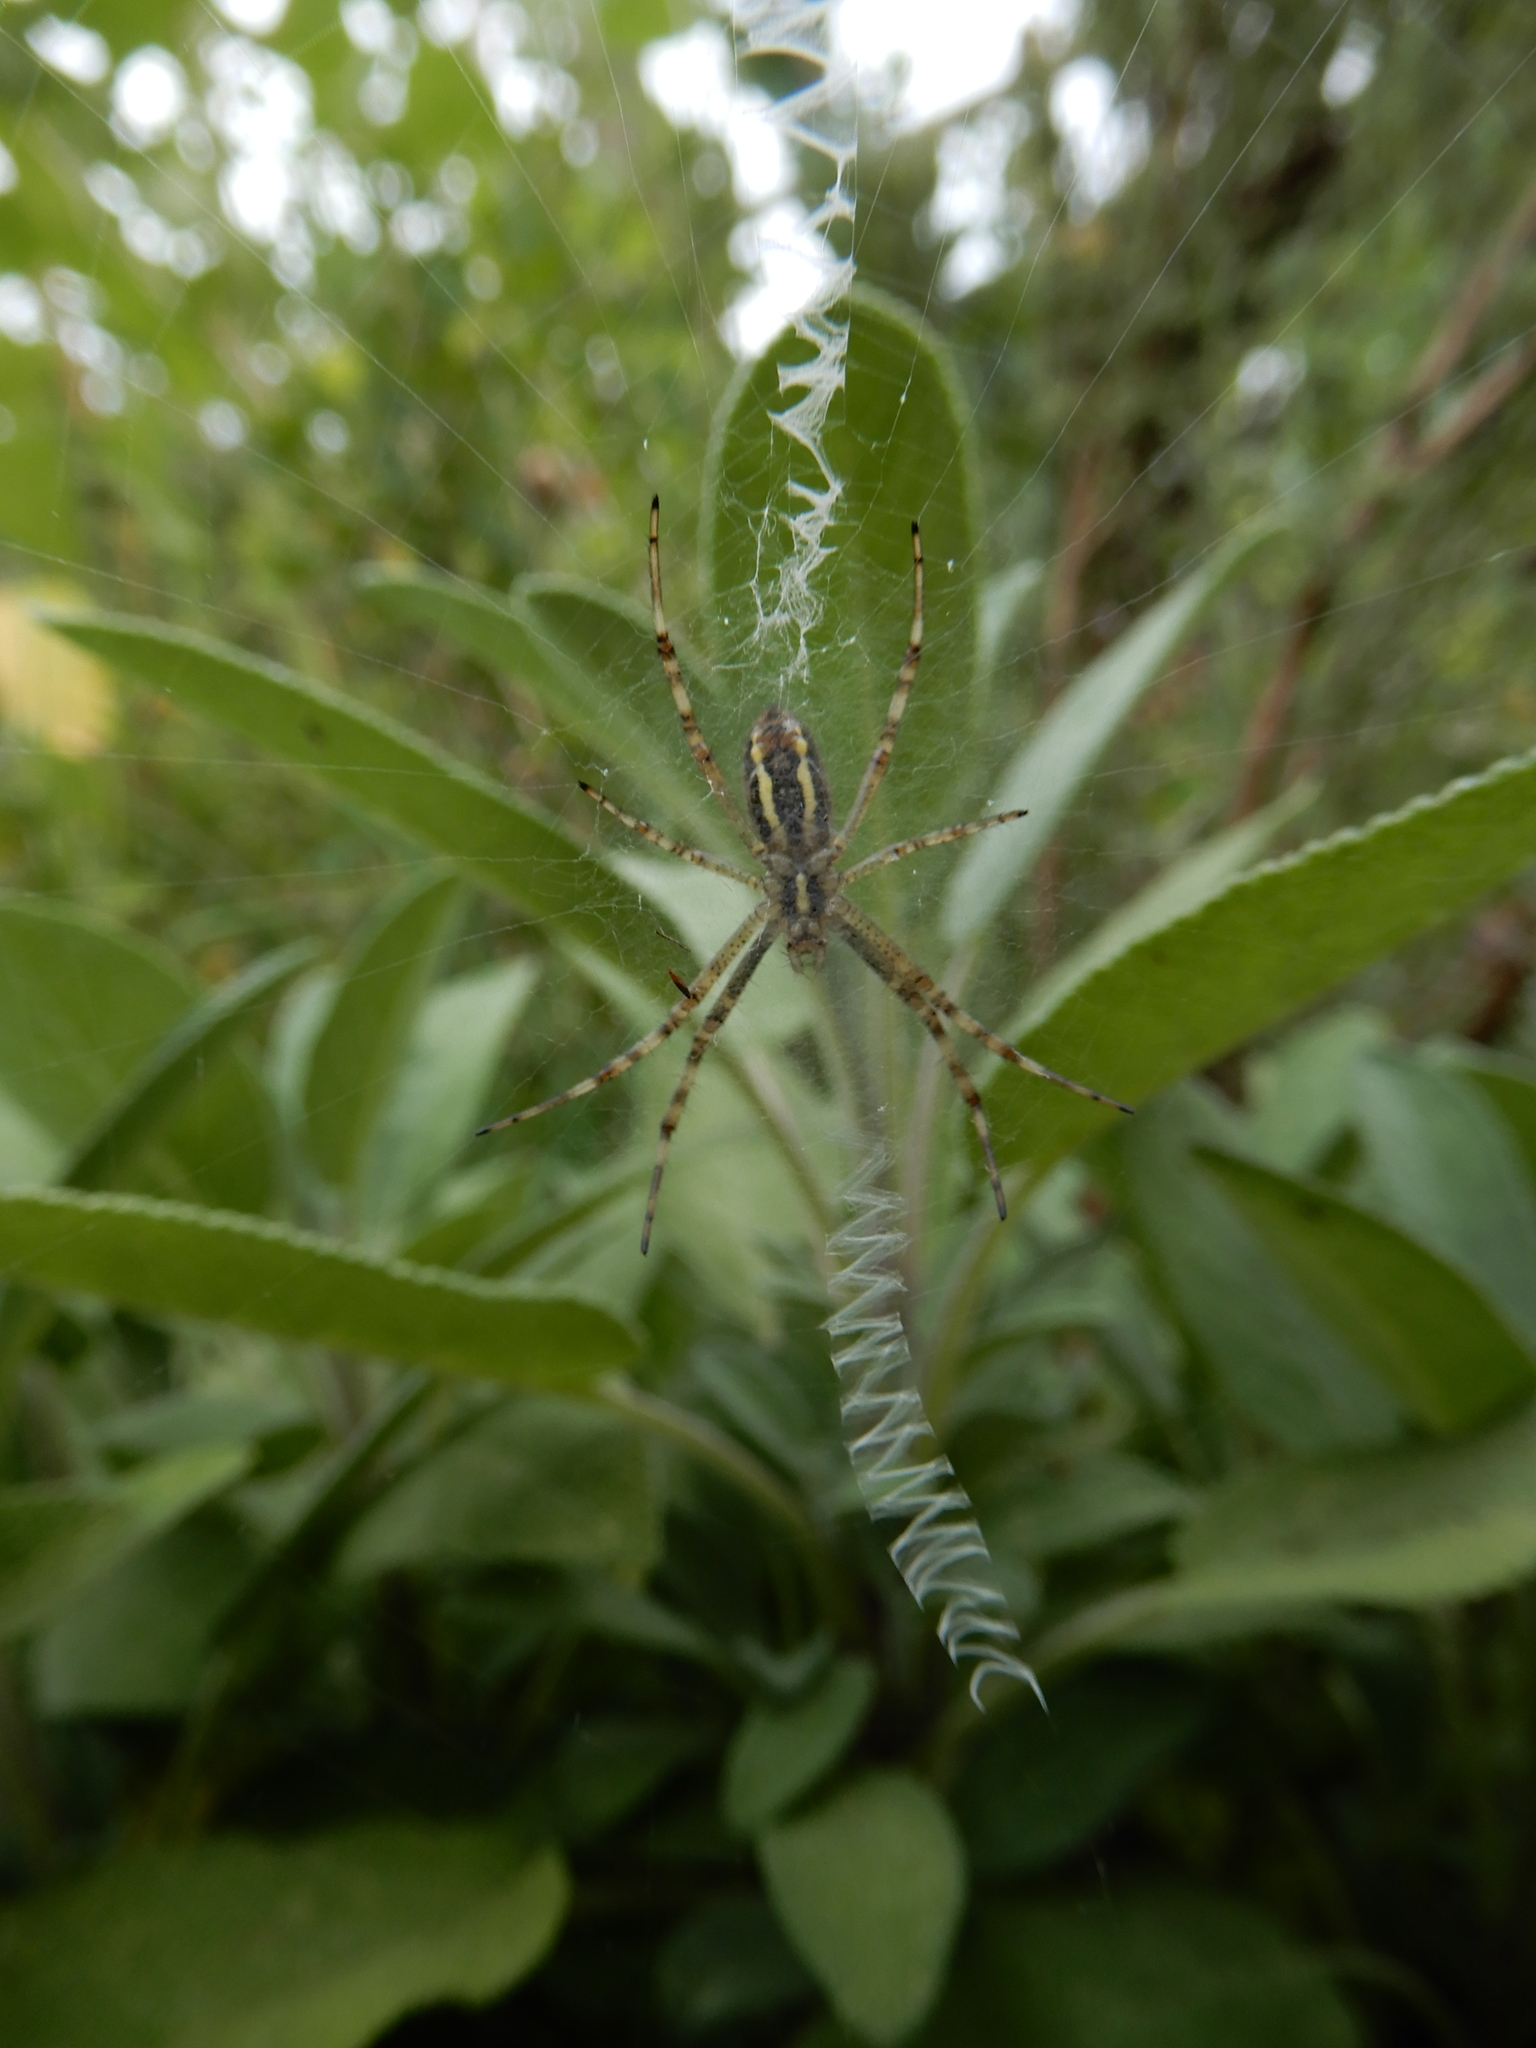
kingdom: Animalia
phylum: Arthropoda
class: Arachnida
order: Araneae
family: Araneidae
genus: Argiope
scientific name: Argiope bruennichi
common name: Wasp spider
